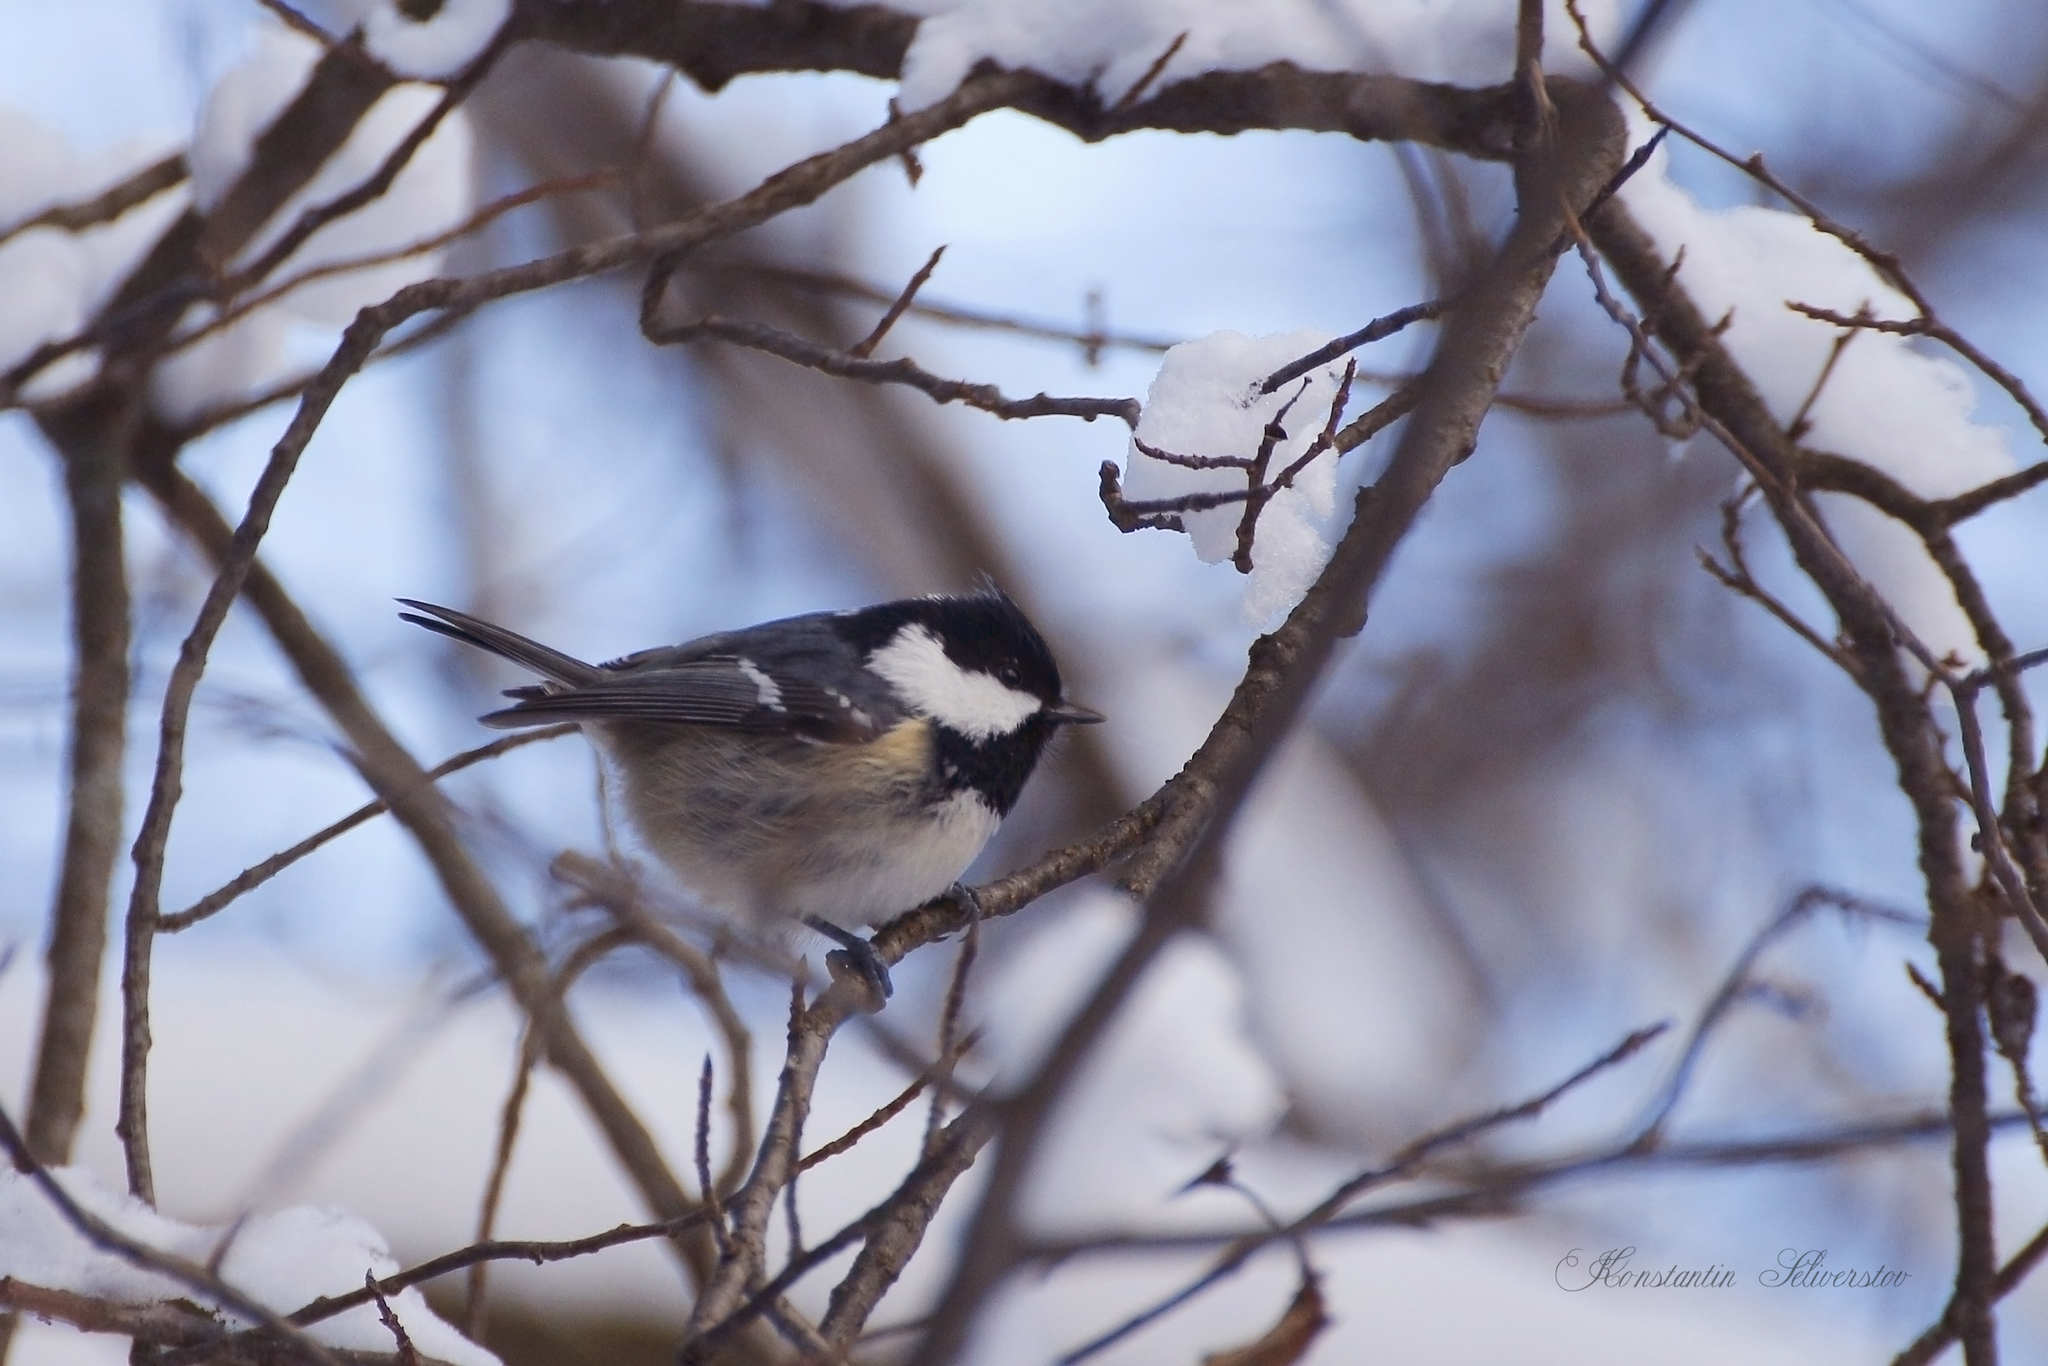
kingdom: Animalia
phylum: Chordata
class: Aves
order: Passeriformes
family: Paridae
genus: Periparus
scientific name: Periparus ater
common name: Coal tit
